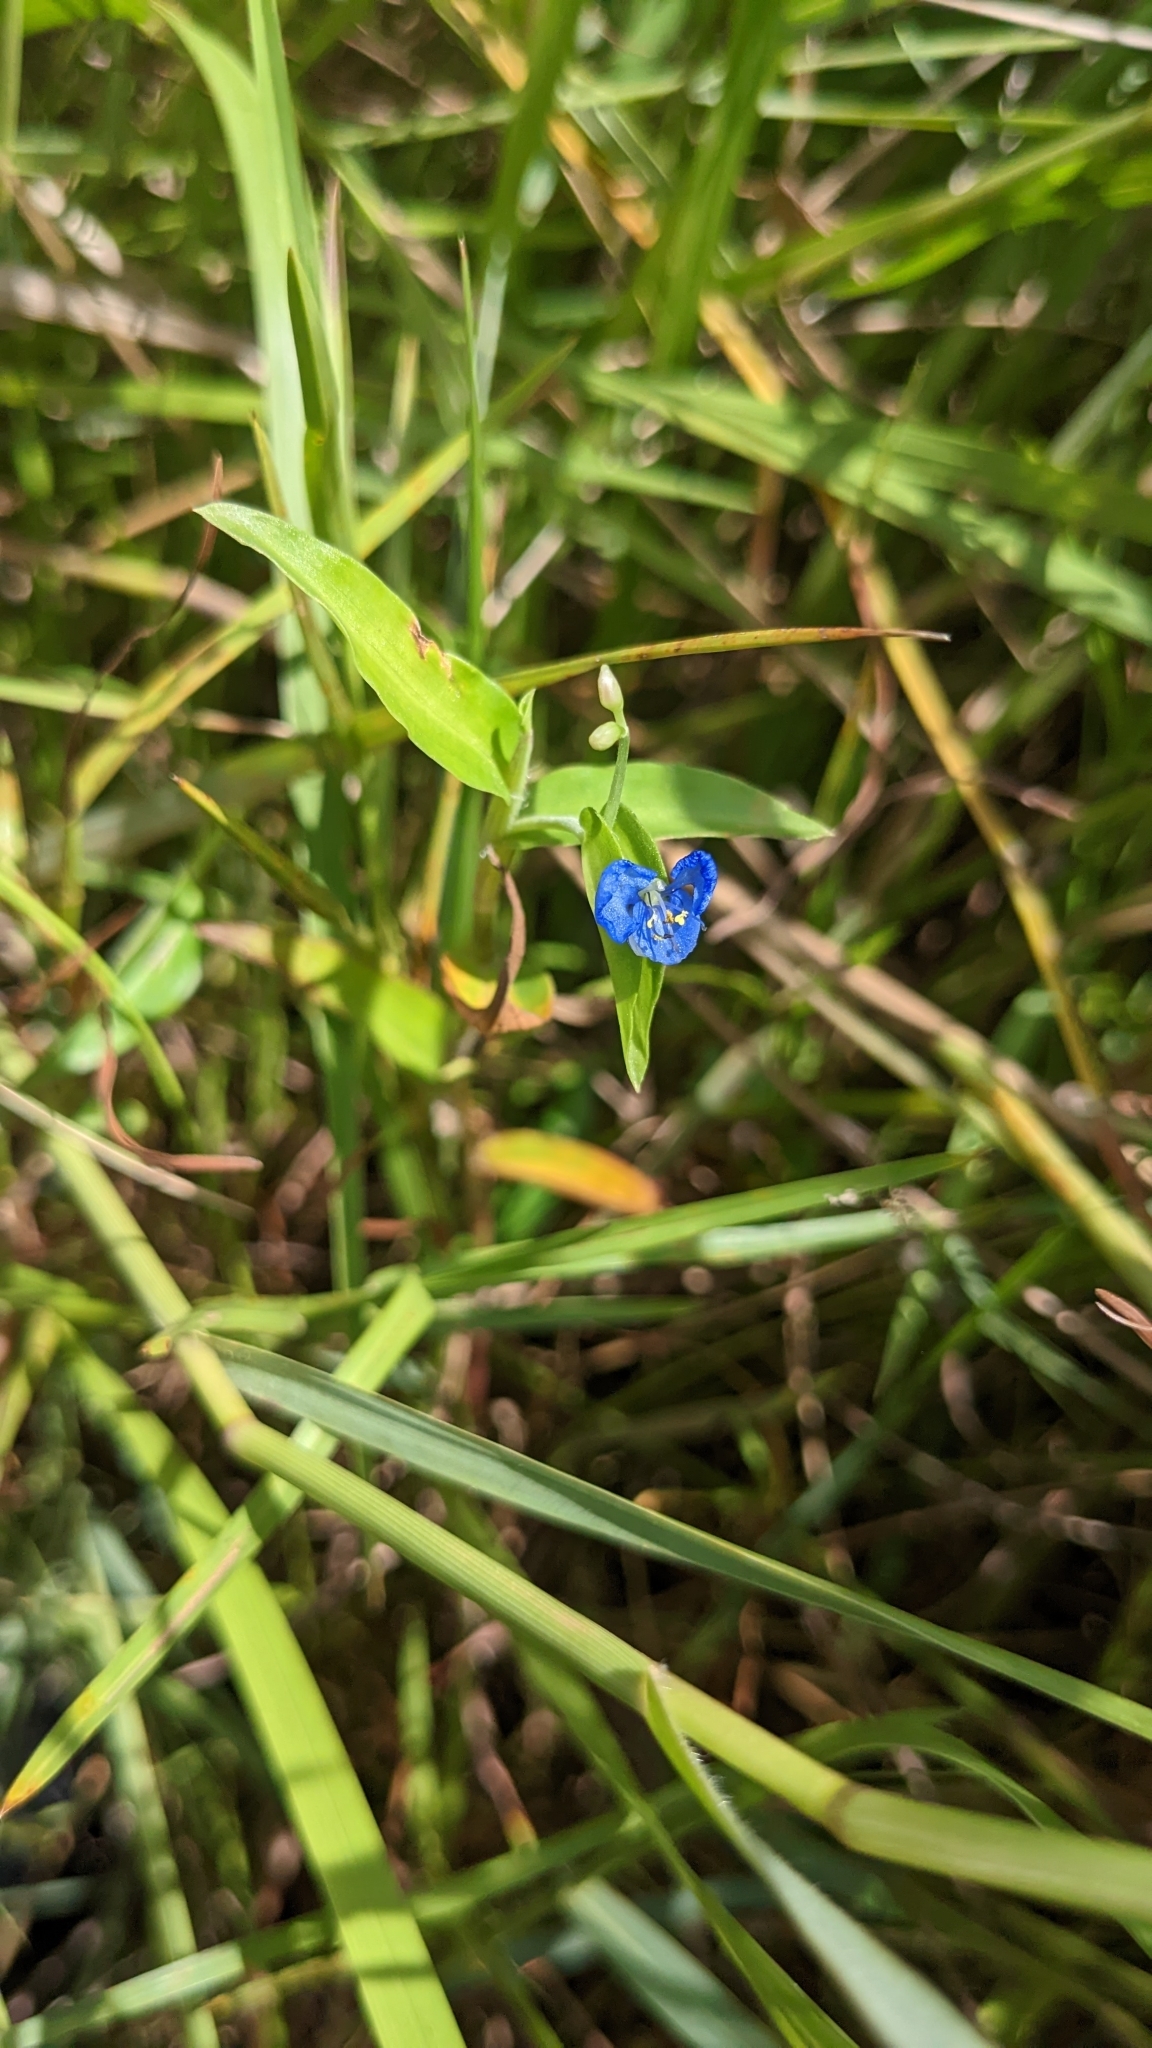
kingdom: Plantae
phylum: Tracheophyta
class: Liliopsida
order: Commelinales
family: Commelinaceae
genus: Commelina
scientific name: Commelina diffusa
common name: Climbing dayflower
